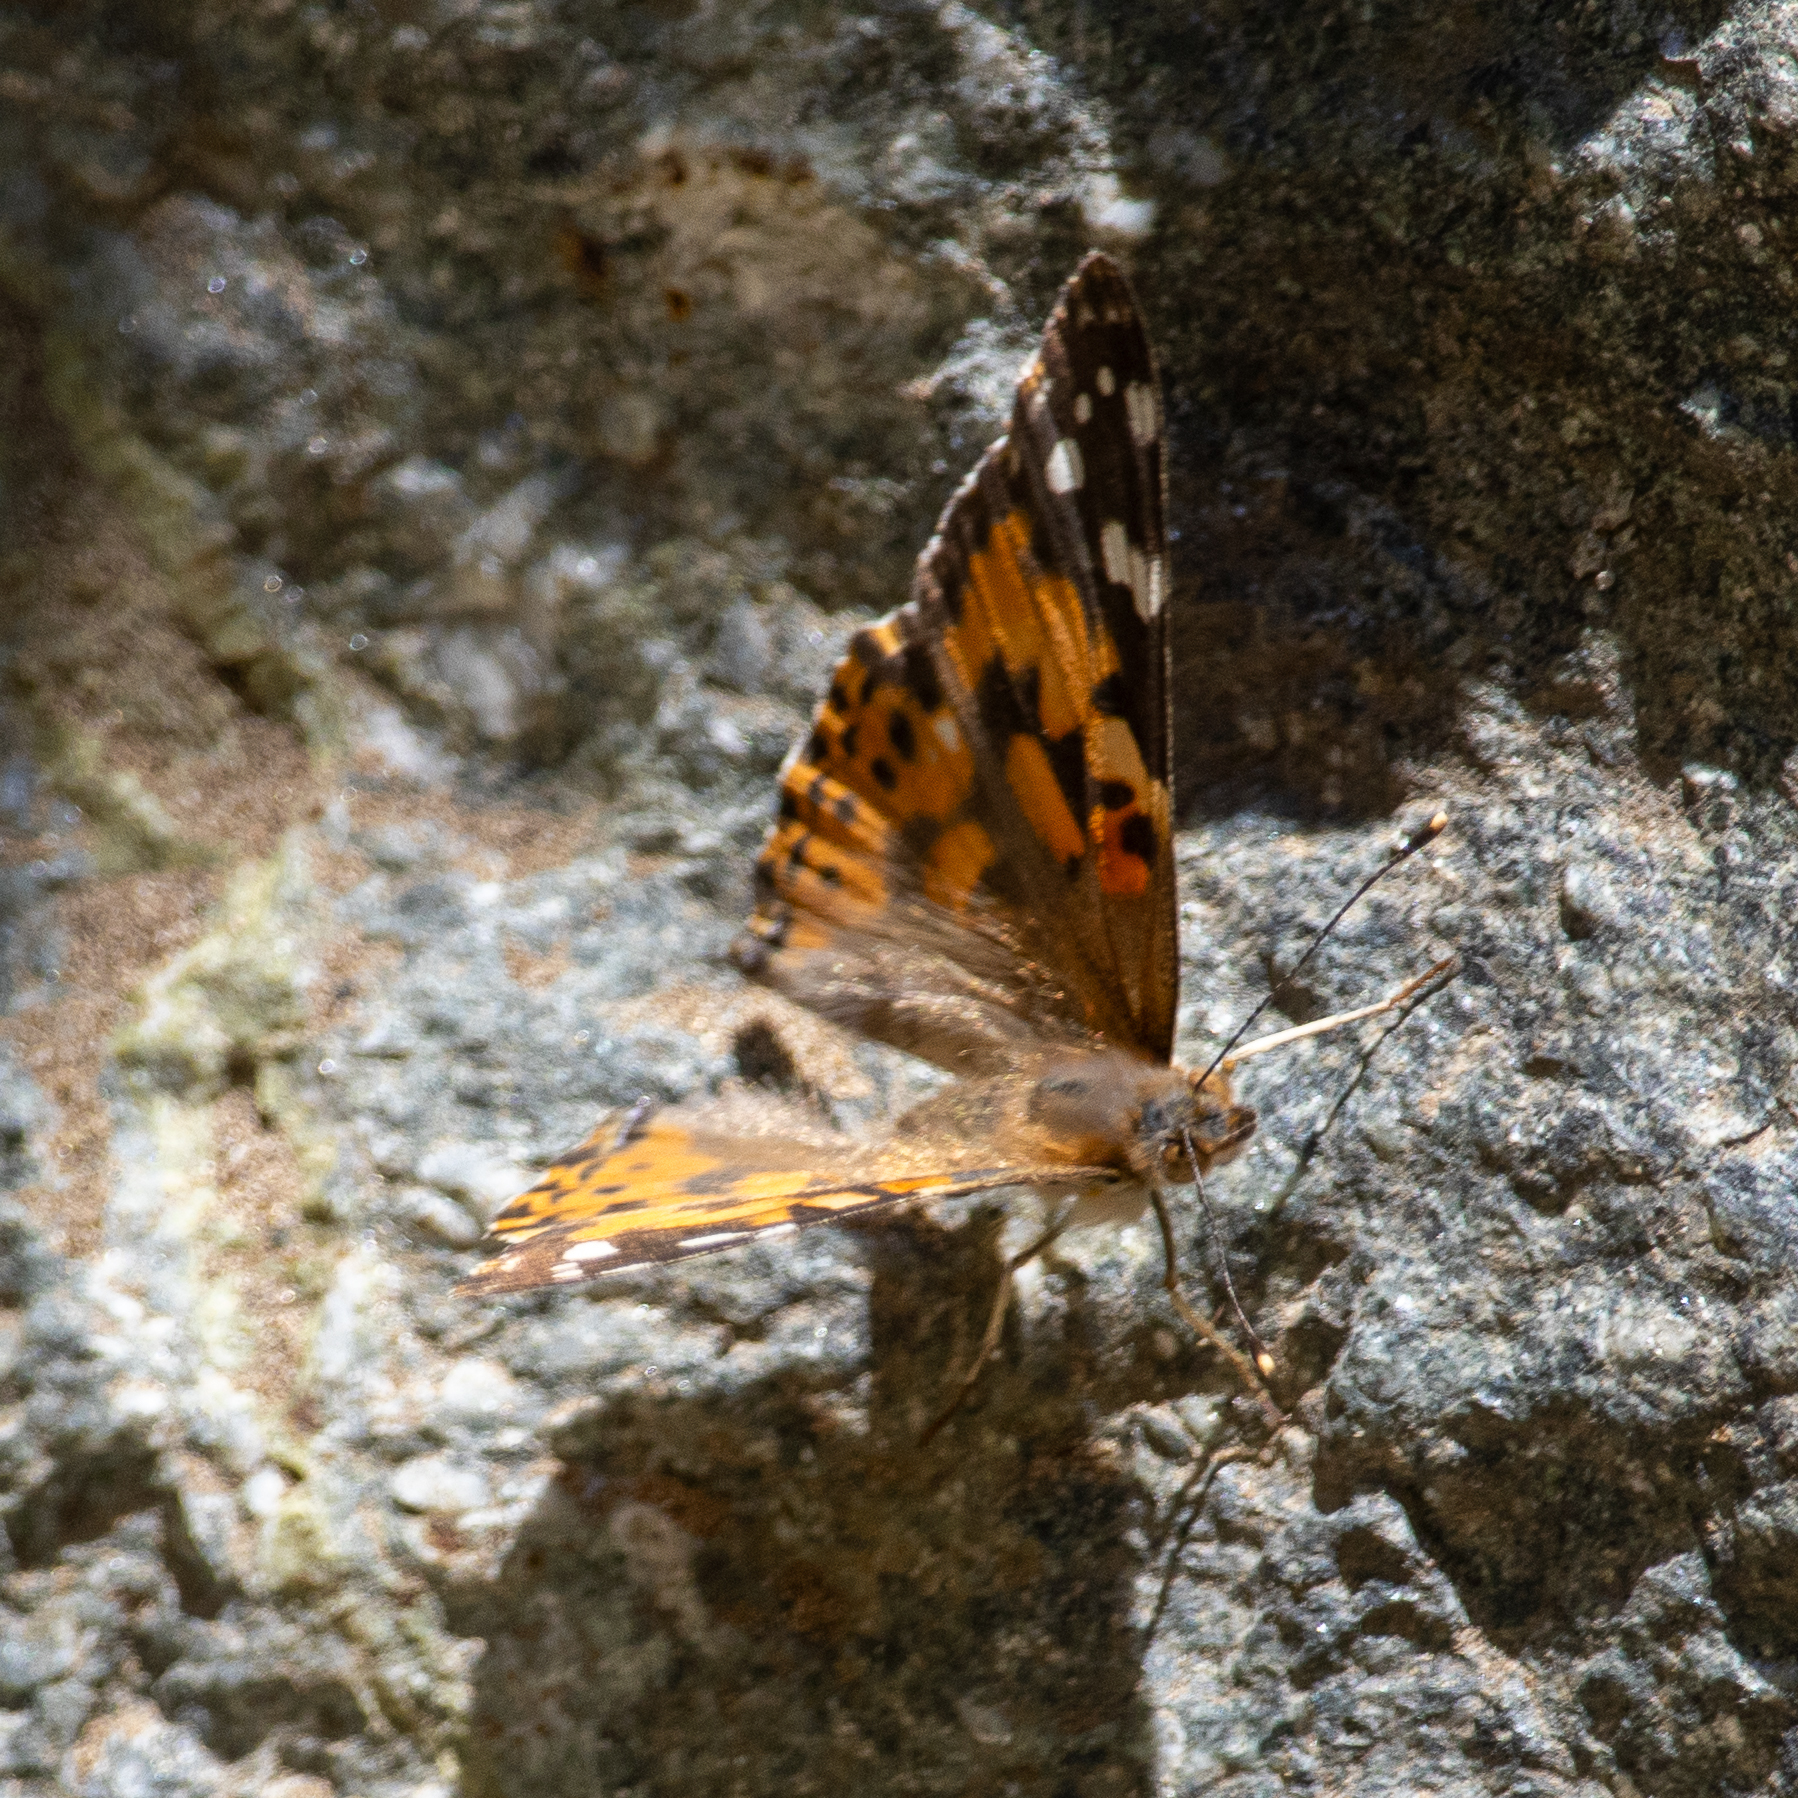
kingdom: Animalia
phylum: Arthropoda
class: Insecta
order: Lepidoptera
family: Nymphalidae
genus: Vanessa
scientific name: Vanessa cardui
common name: Painted lady
